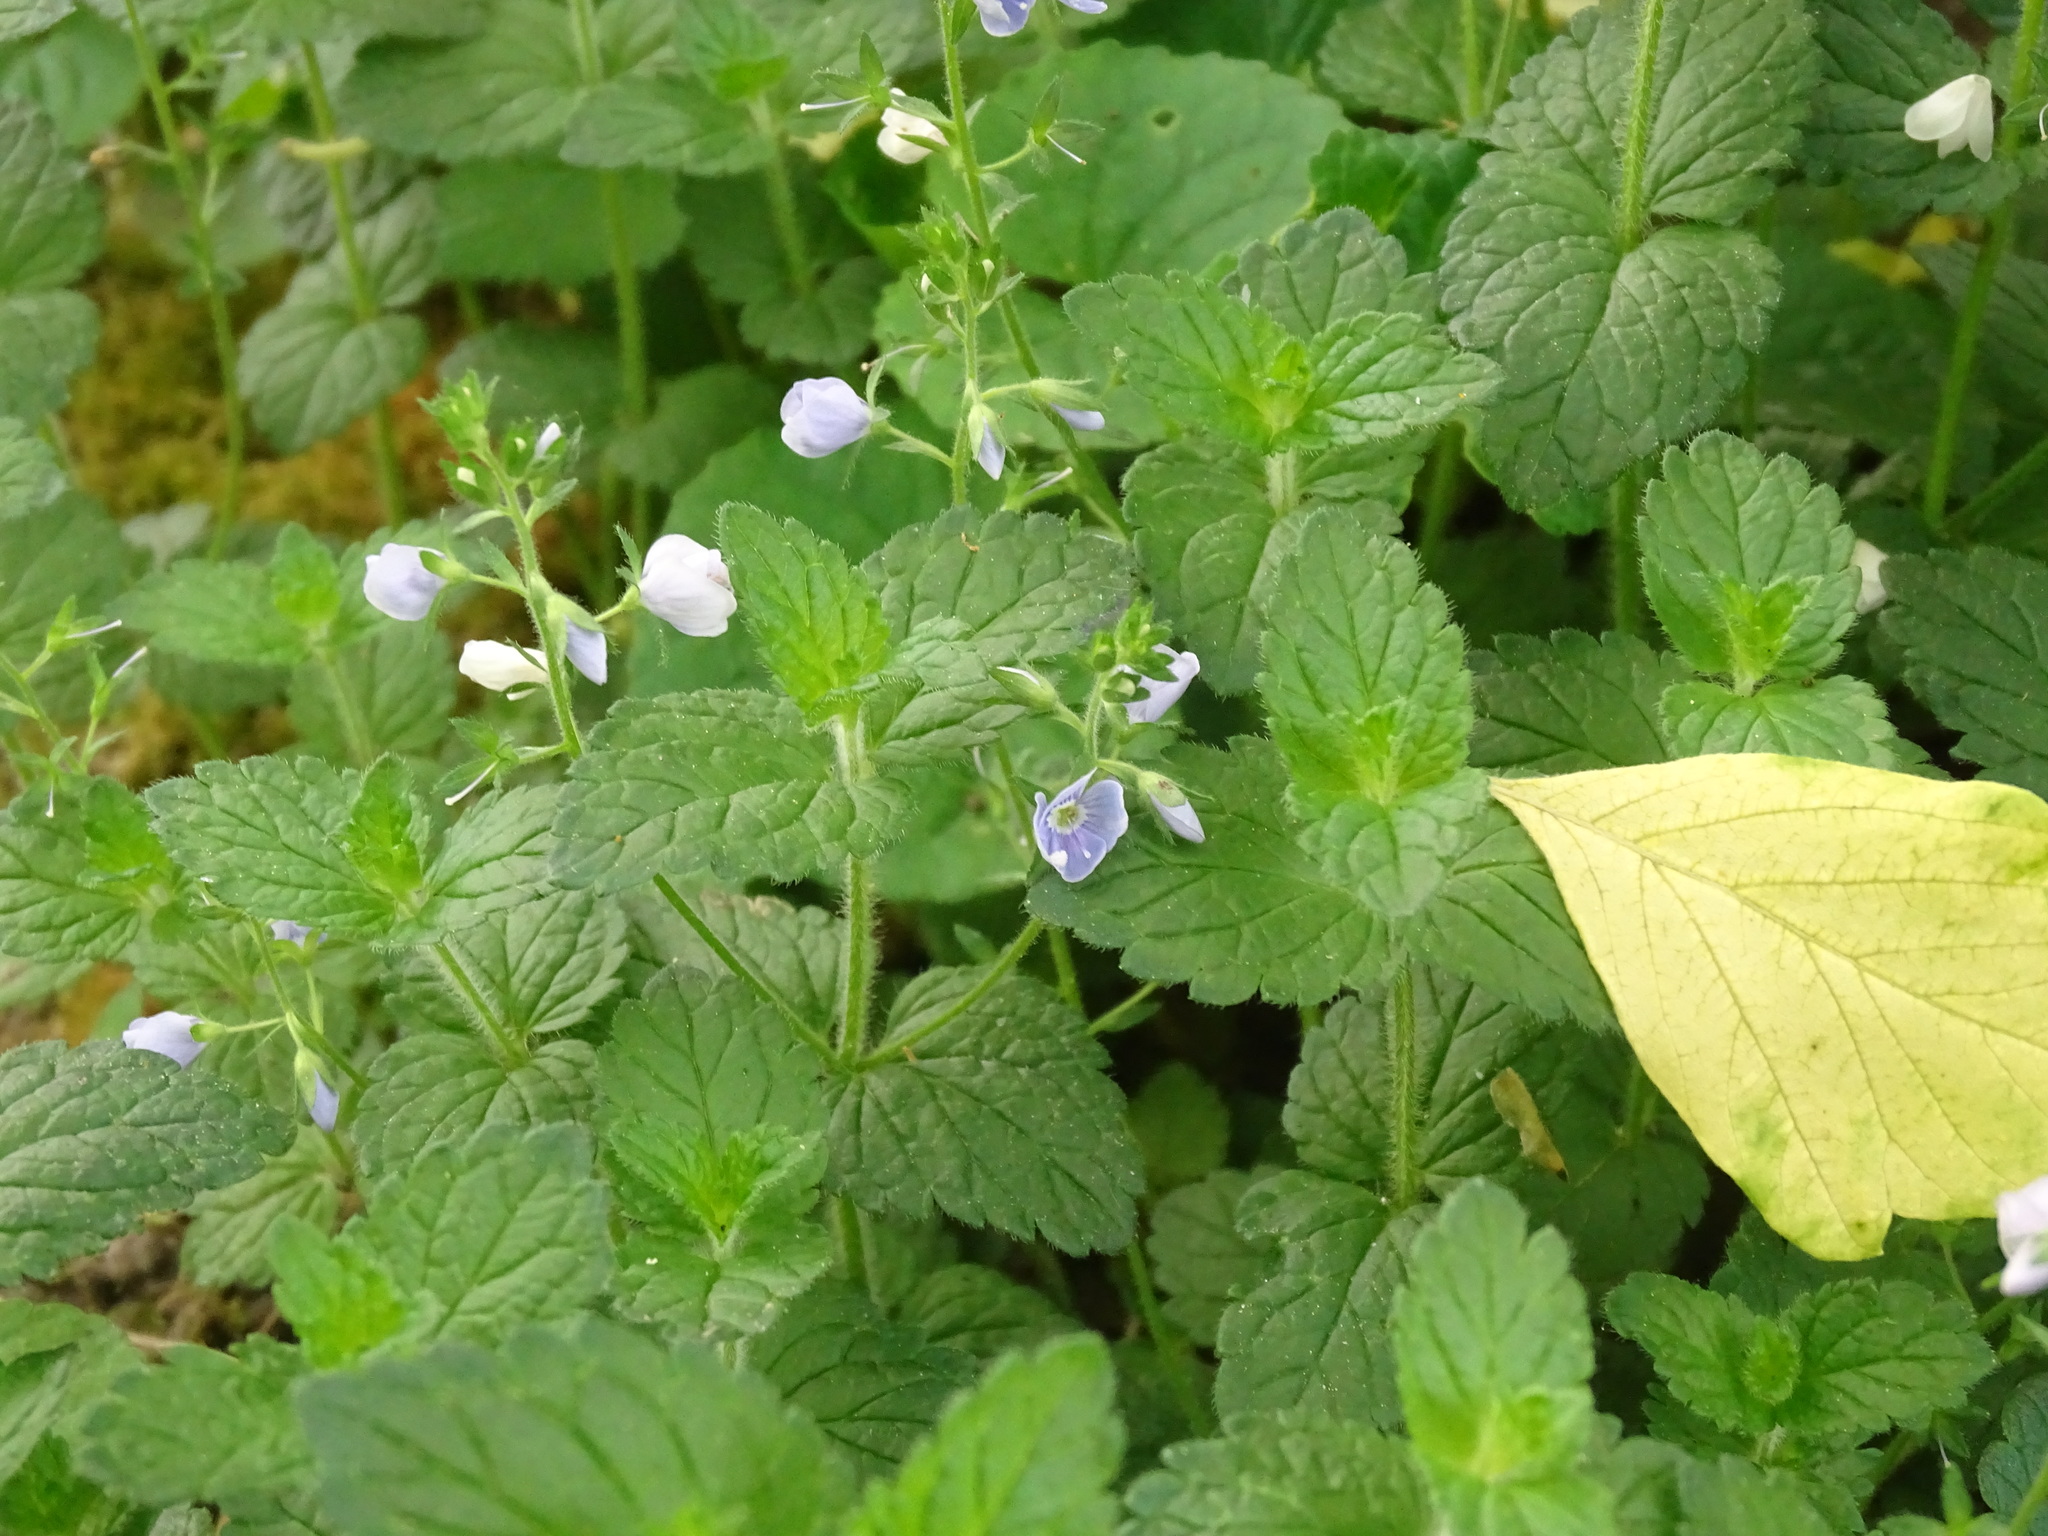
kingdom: Plantae
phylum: Tracheophyta
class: Magnoliopsida
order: Lamiales
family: Plantaginaceae
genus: Veronica
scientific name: Veronica chamaedrys
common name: Germander speedwell
